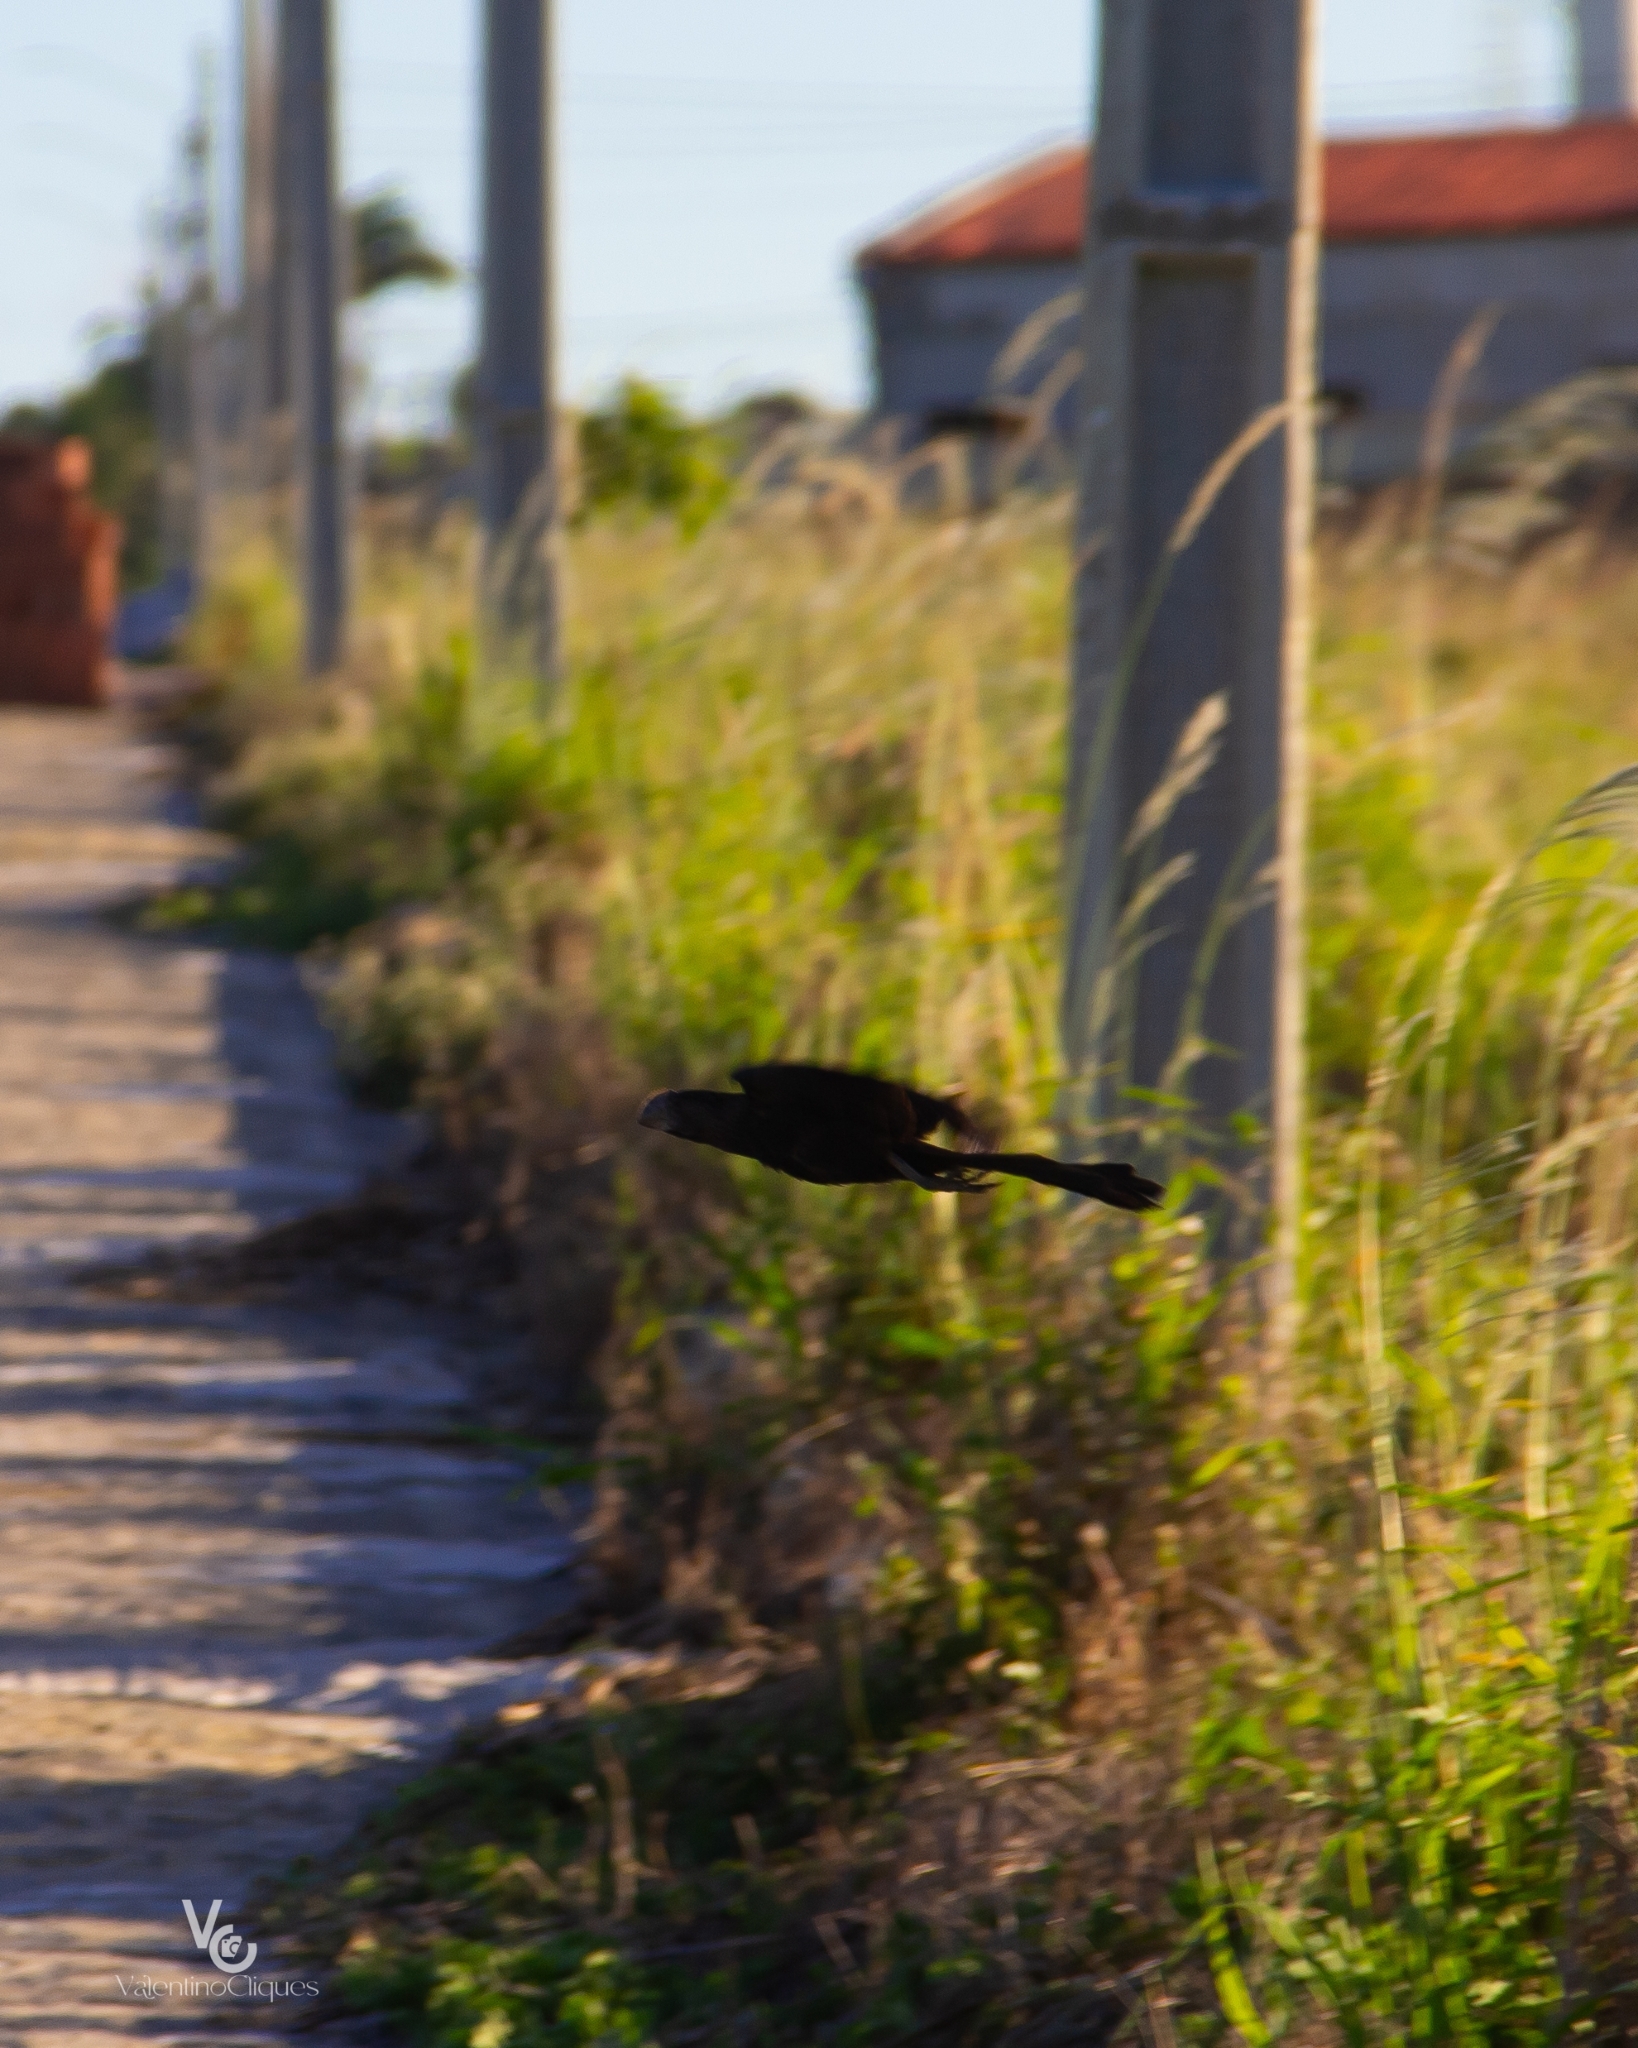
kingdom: Animalia
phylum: Chordata
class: Aves
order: Cuculiformes
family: Cuculidae
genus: Crotophaga
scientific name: Crotophaga ani
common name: Smooth-billed ani
